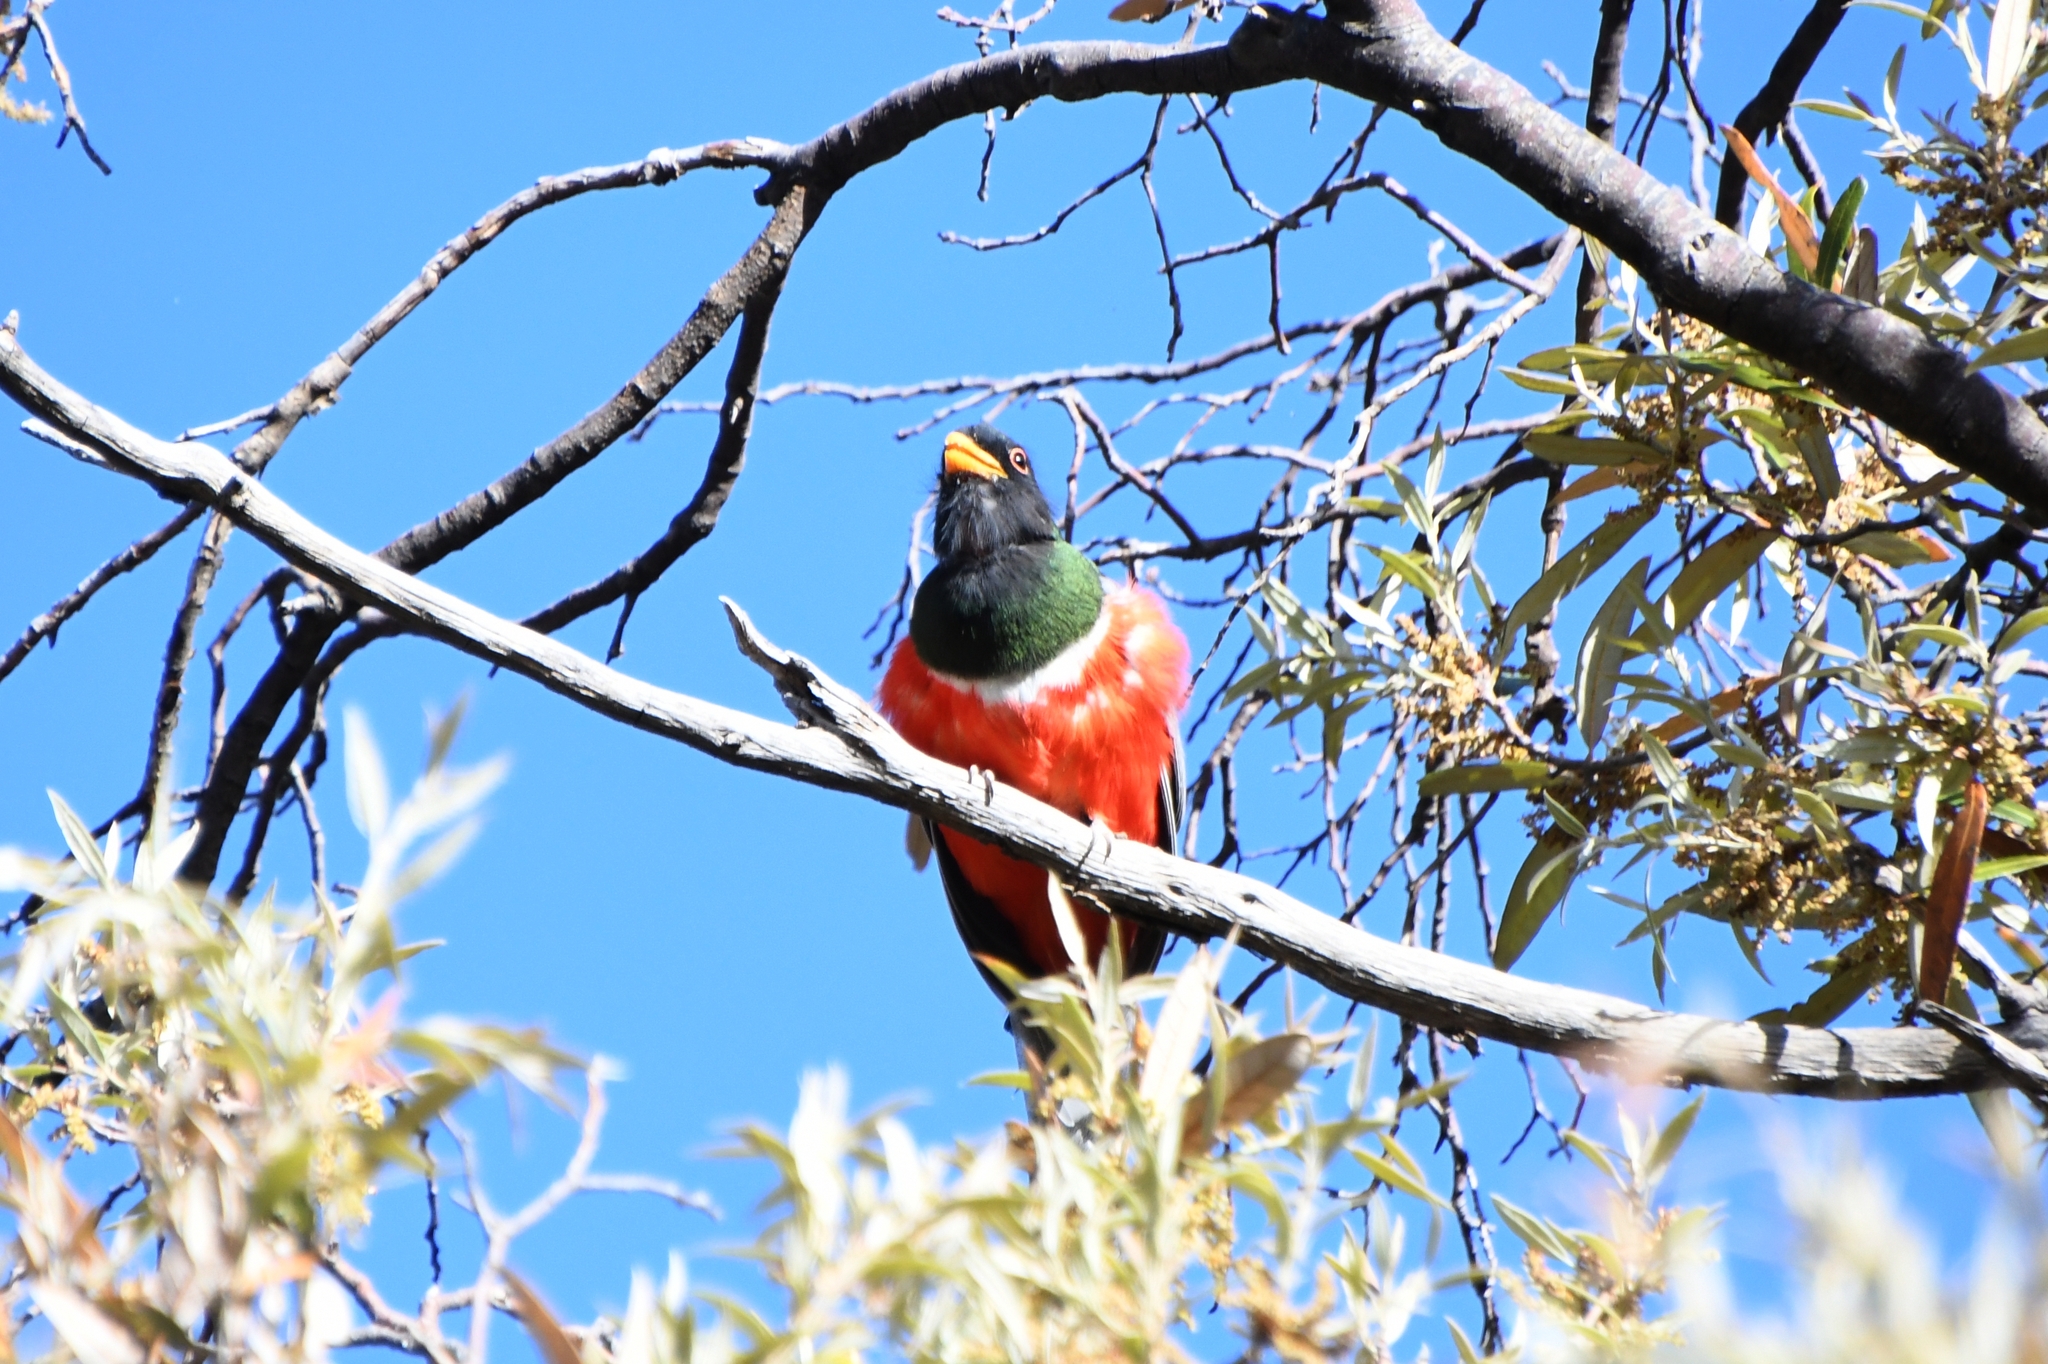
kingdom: Animalia
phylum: Chordata
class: Aves
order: Trogoniformes
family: Trogonidae
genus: Trogon
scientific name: Trogon elegans
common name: Elegant trogon
